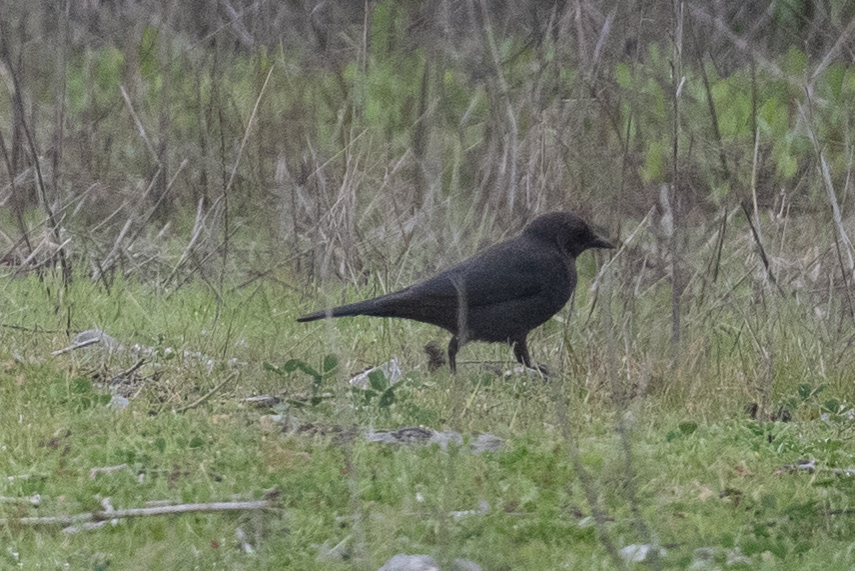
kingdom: Animalia
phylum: Chordata
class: Aves
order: Passeriformes
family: Icteridae
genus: Euphagus
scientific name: Euphagus cyanocephalus
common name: Brewer's blackbird
